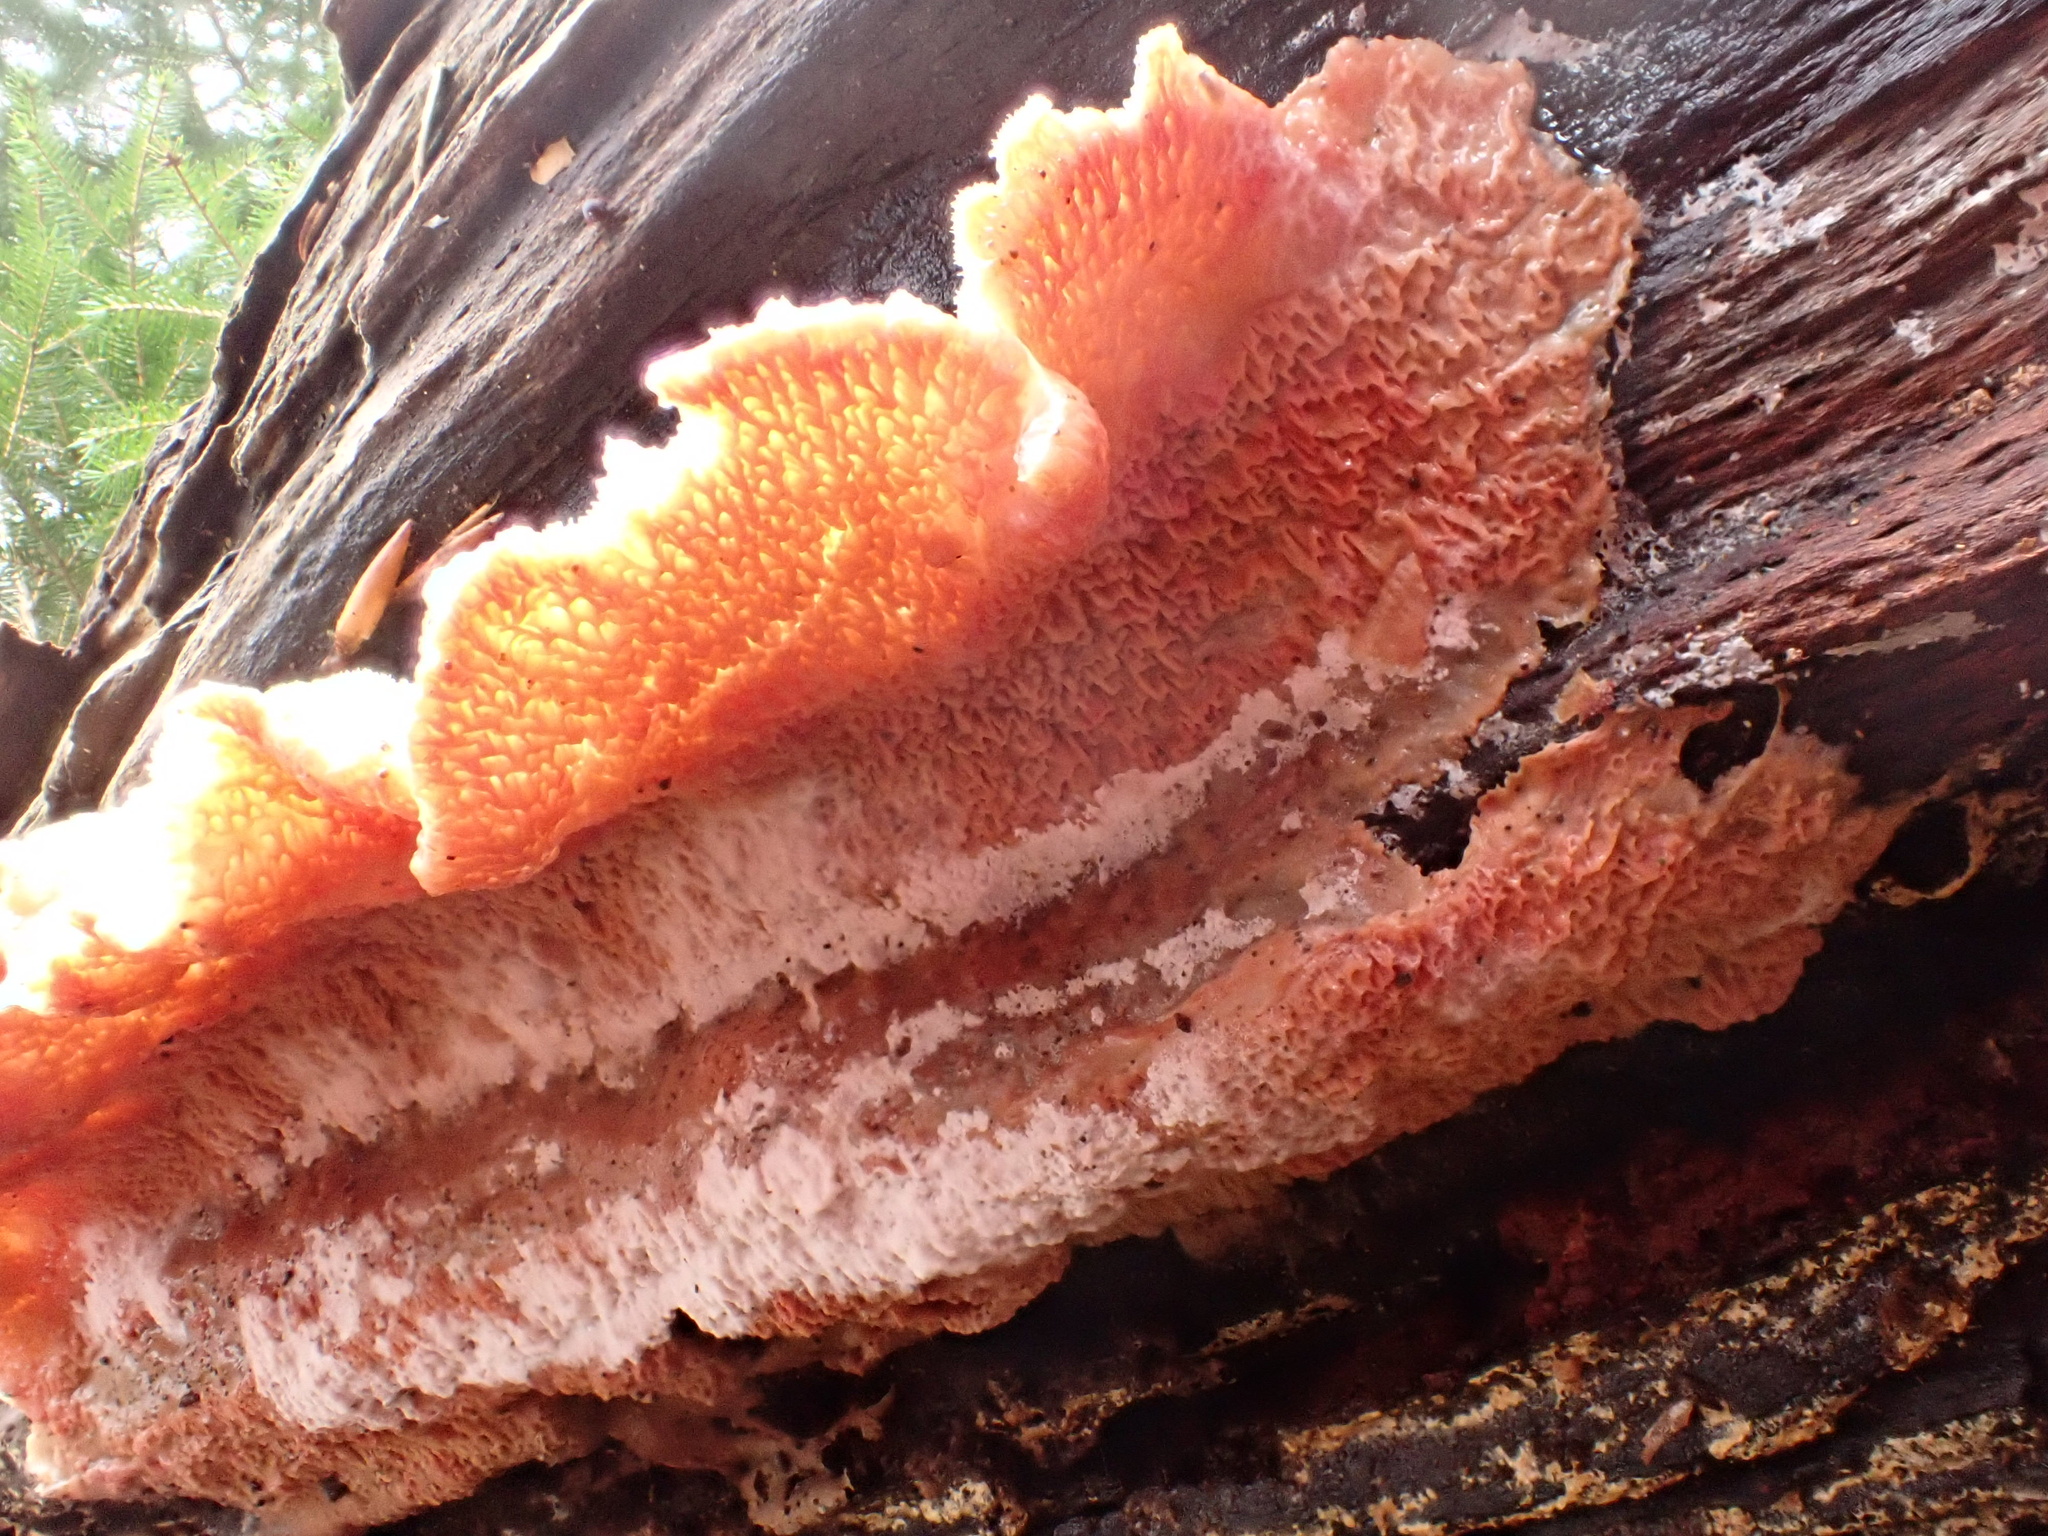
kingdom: Fungi
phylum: Basidiomycota
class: Agaricomycetes
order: Polyporales
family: Meruliaceae
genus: Phlebia
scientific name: Phlebia tremellosa
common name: Jelly rot
